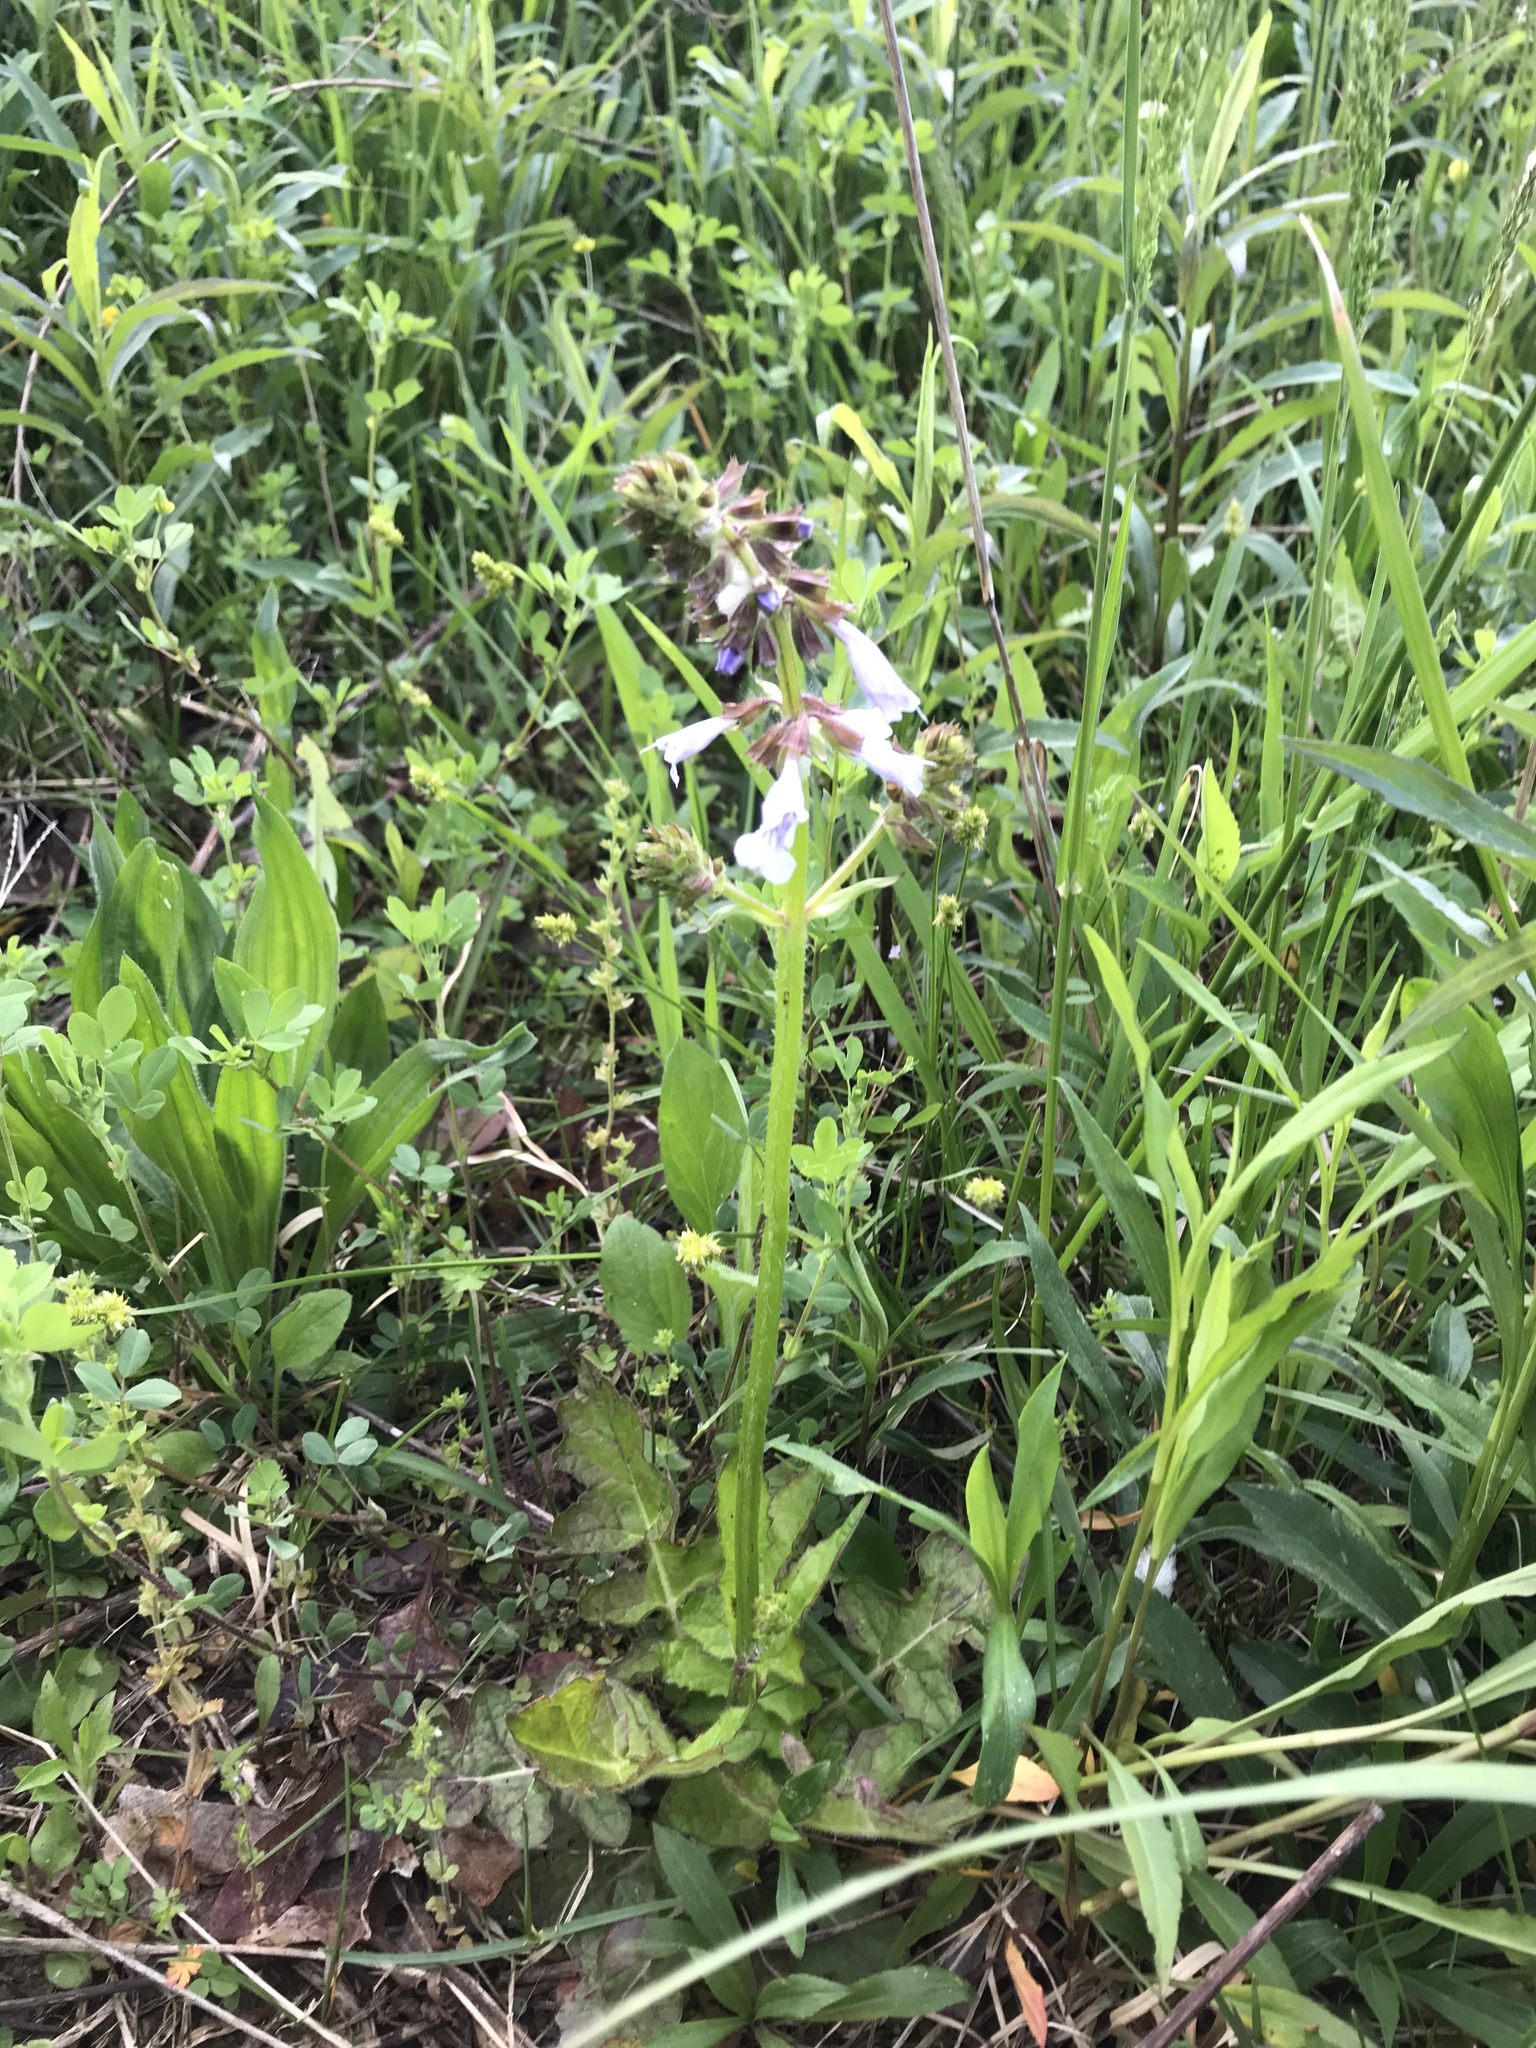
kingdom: Plantae
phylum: Tracheophyta
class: Magnoliopsida
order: Lamiales
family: Lamiaceae
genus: Salvia
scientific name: Salvia lyrata
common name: Cancerweed
